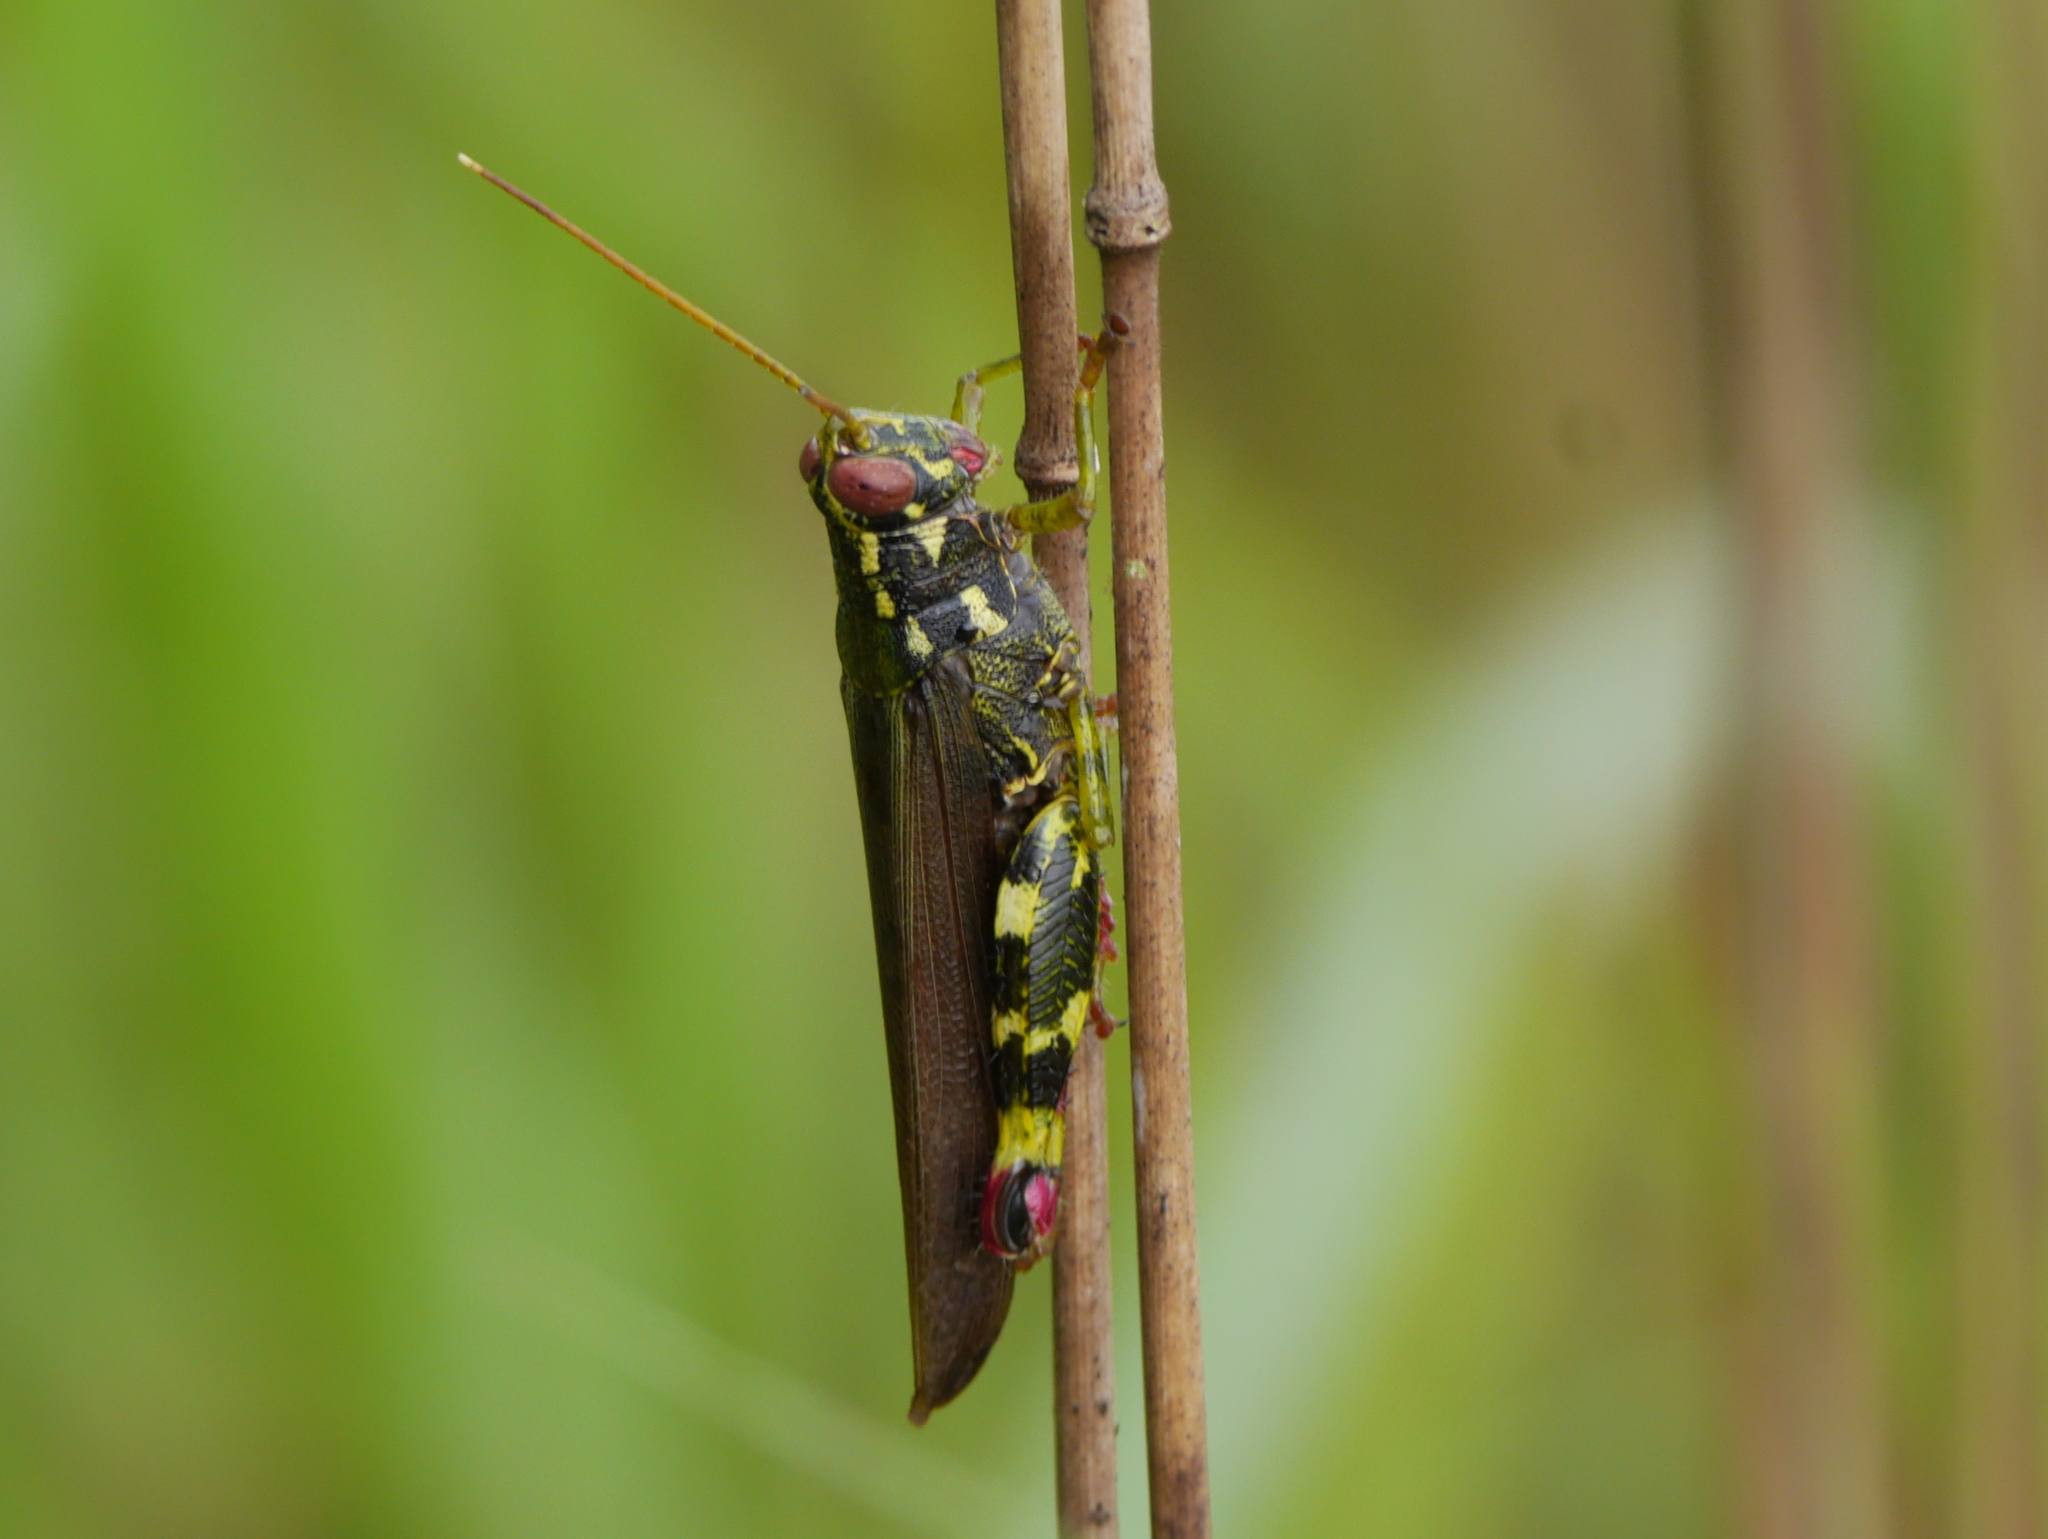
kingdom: Animalia
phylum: Arthropoda
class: Insecta
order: Orthoptera
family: Acrididae
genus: Stenocrobylus
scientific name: Stenocrobylus festivus
